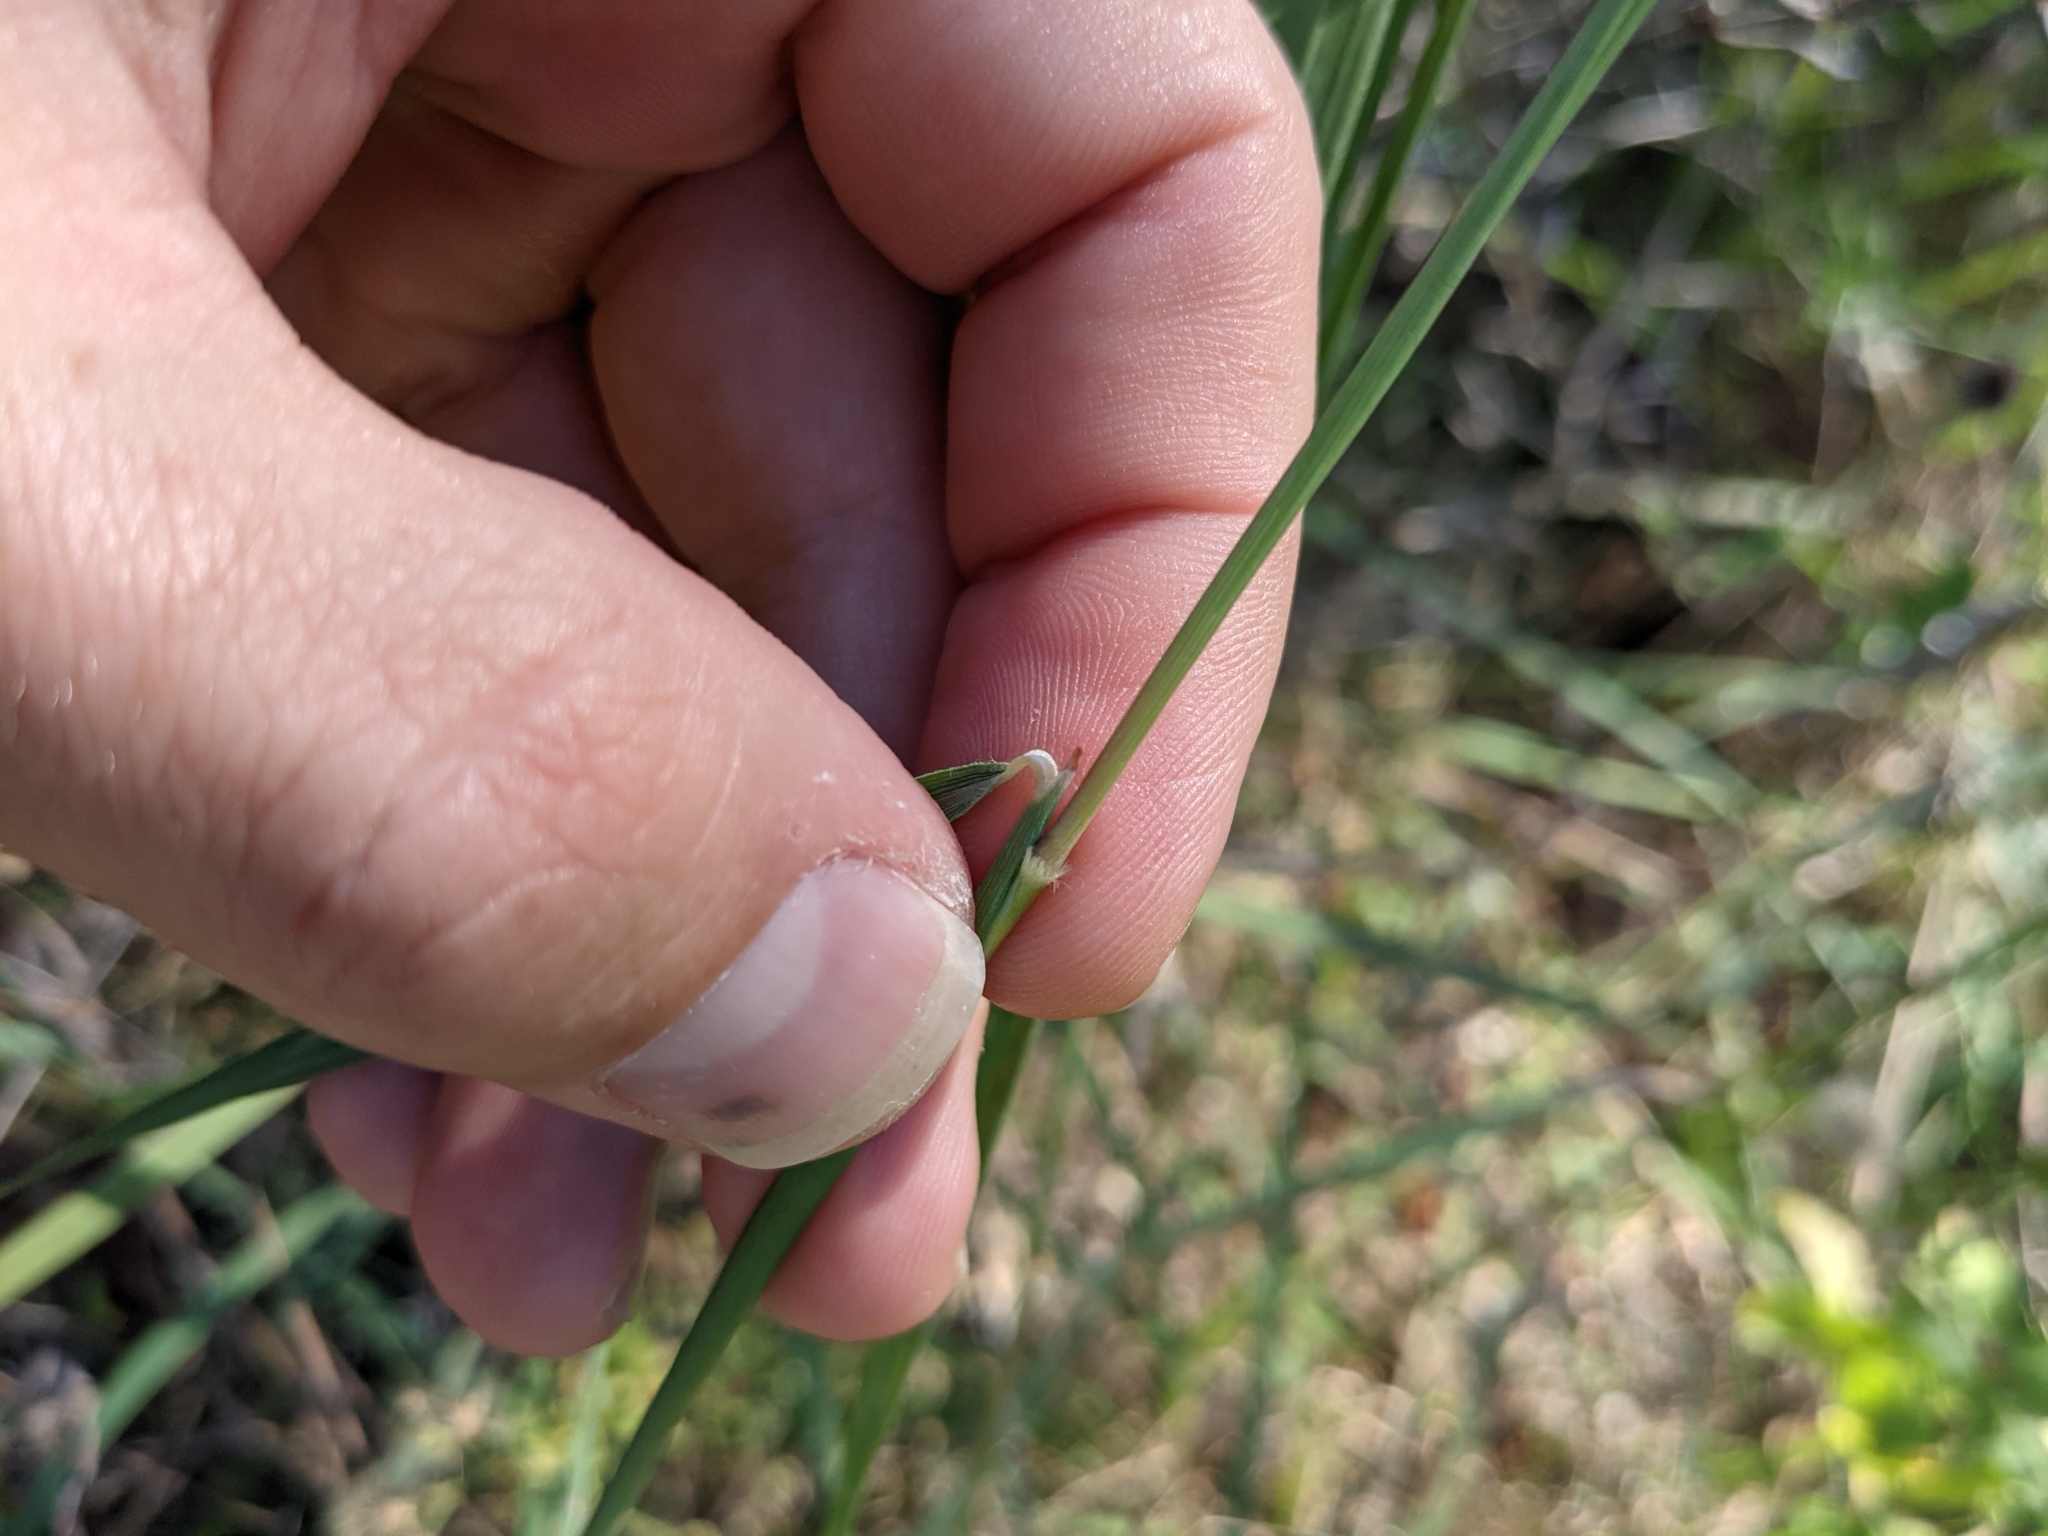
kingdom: Plantae
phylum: Tracheophyta
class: Liliopsida
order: Poales
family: Poaceae
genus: Trachypogon
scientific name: Trachypogon spicatus
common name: Crinkle-awn
